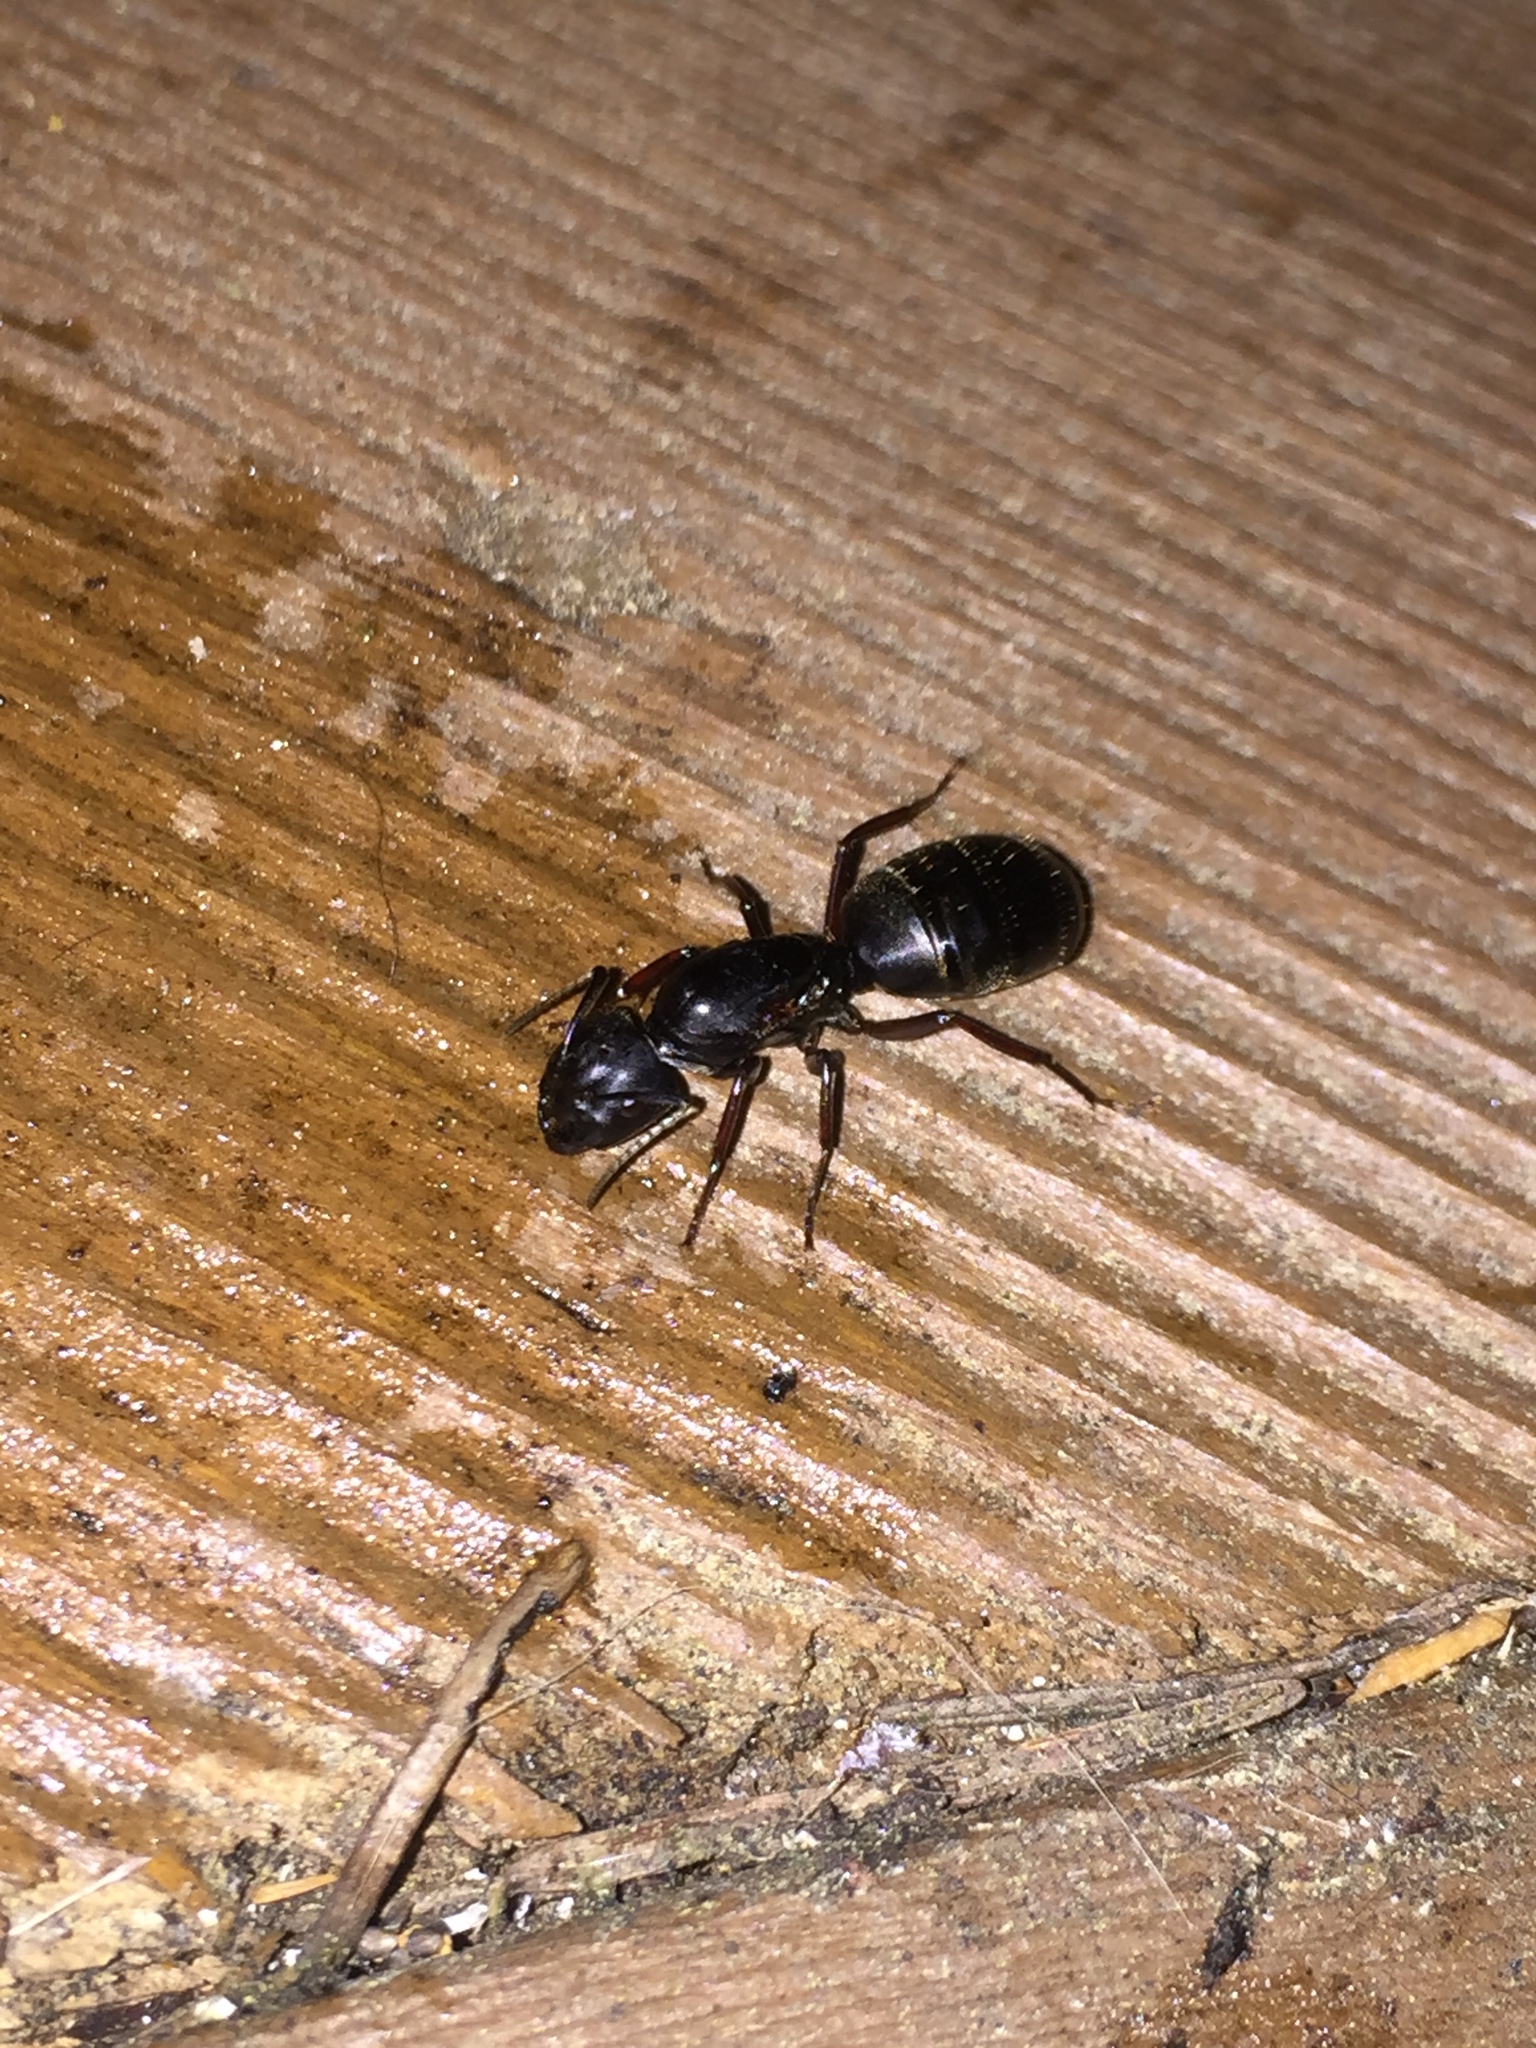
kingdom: Animalia
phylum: Arthropoda
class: Insecta
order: Hymenoptera
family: Formicidae
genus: Camponotus
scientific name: Camponotus modoc
